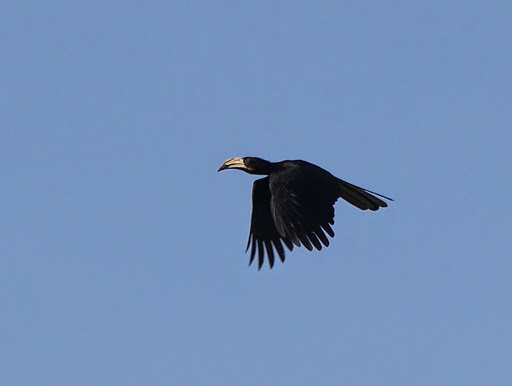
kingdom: Animalia
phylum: Chordata
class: Aves
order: Bucerotiformes
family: Bucerotidae
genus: Lophoceros
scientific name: Lophoceros fasciatus
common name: African pied hornbill
